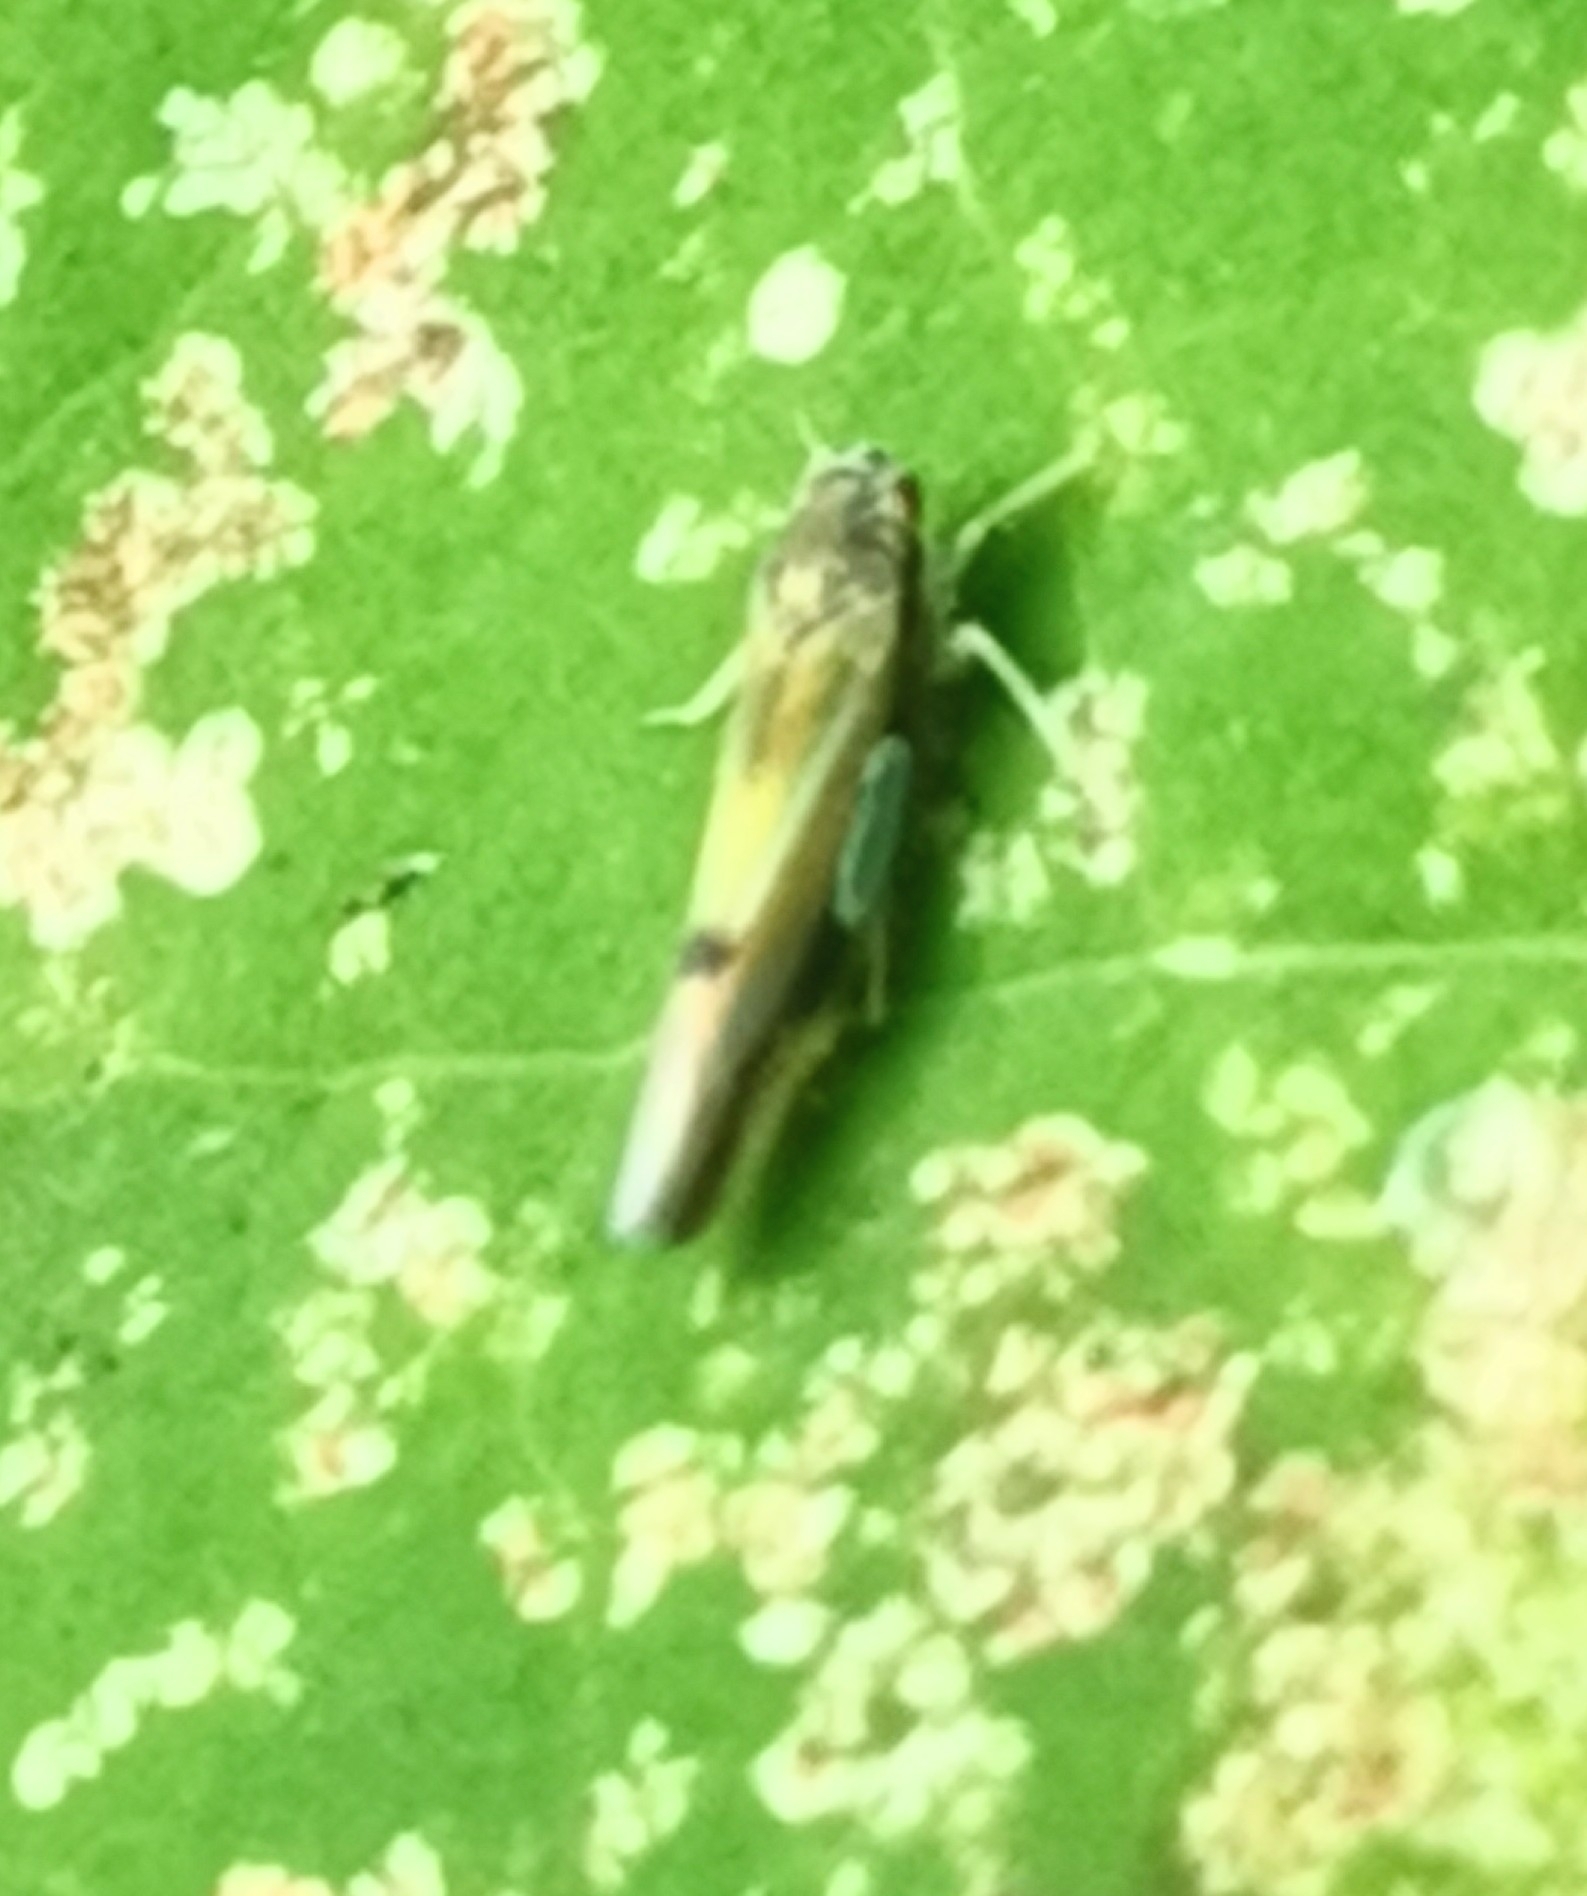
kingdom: Animalia
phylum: Arthropoda
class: Insecta
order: Hemiptera
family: Cicadellidae
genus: Vilbasteana
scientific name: Vilbasteana oculata
